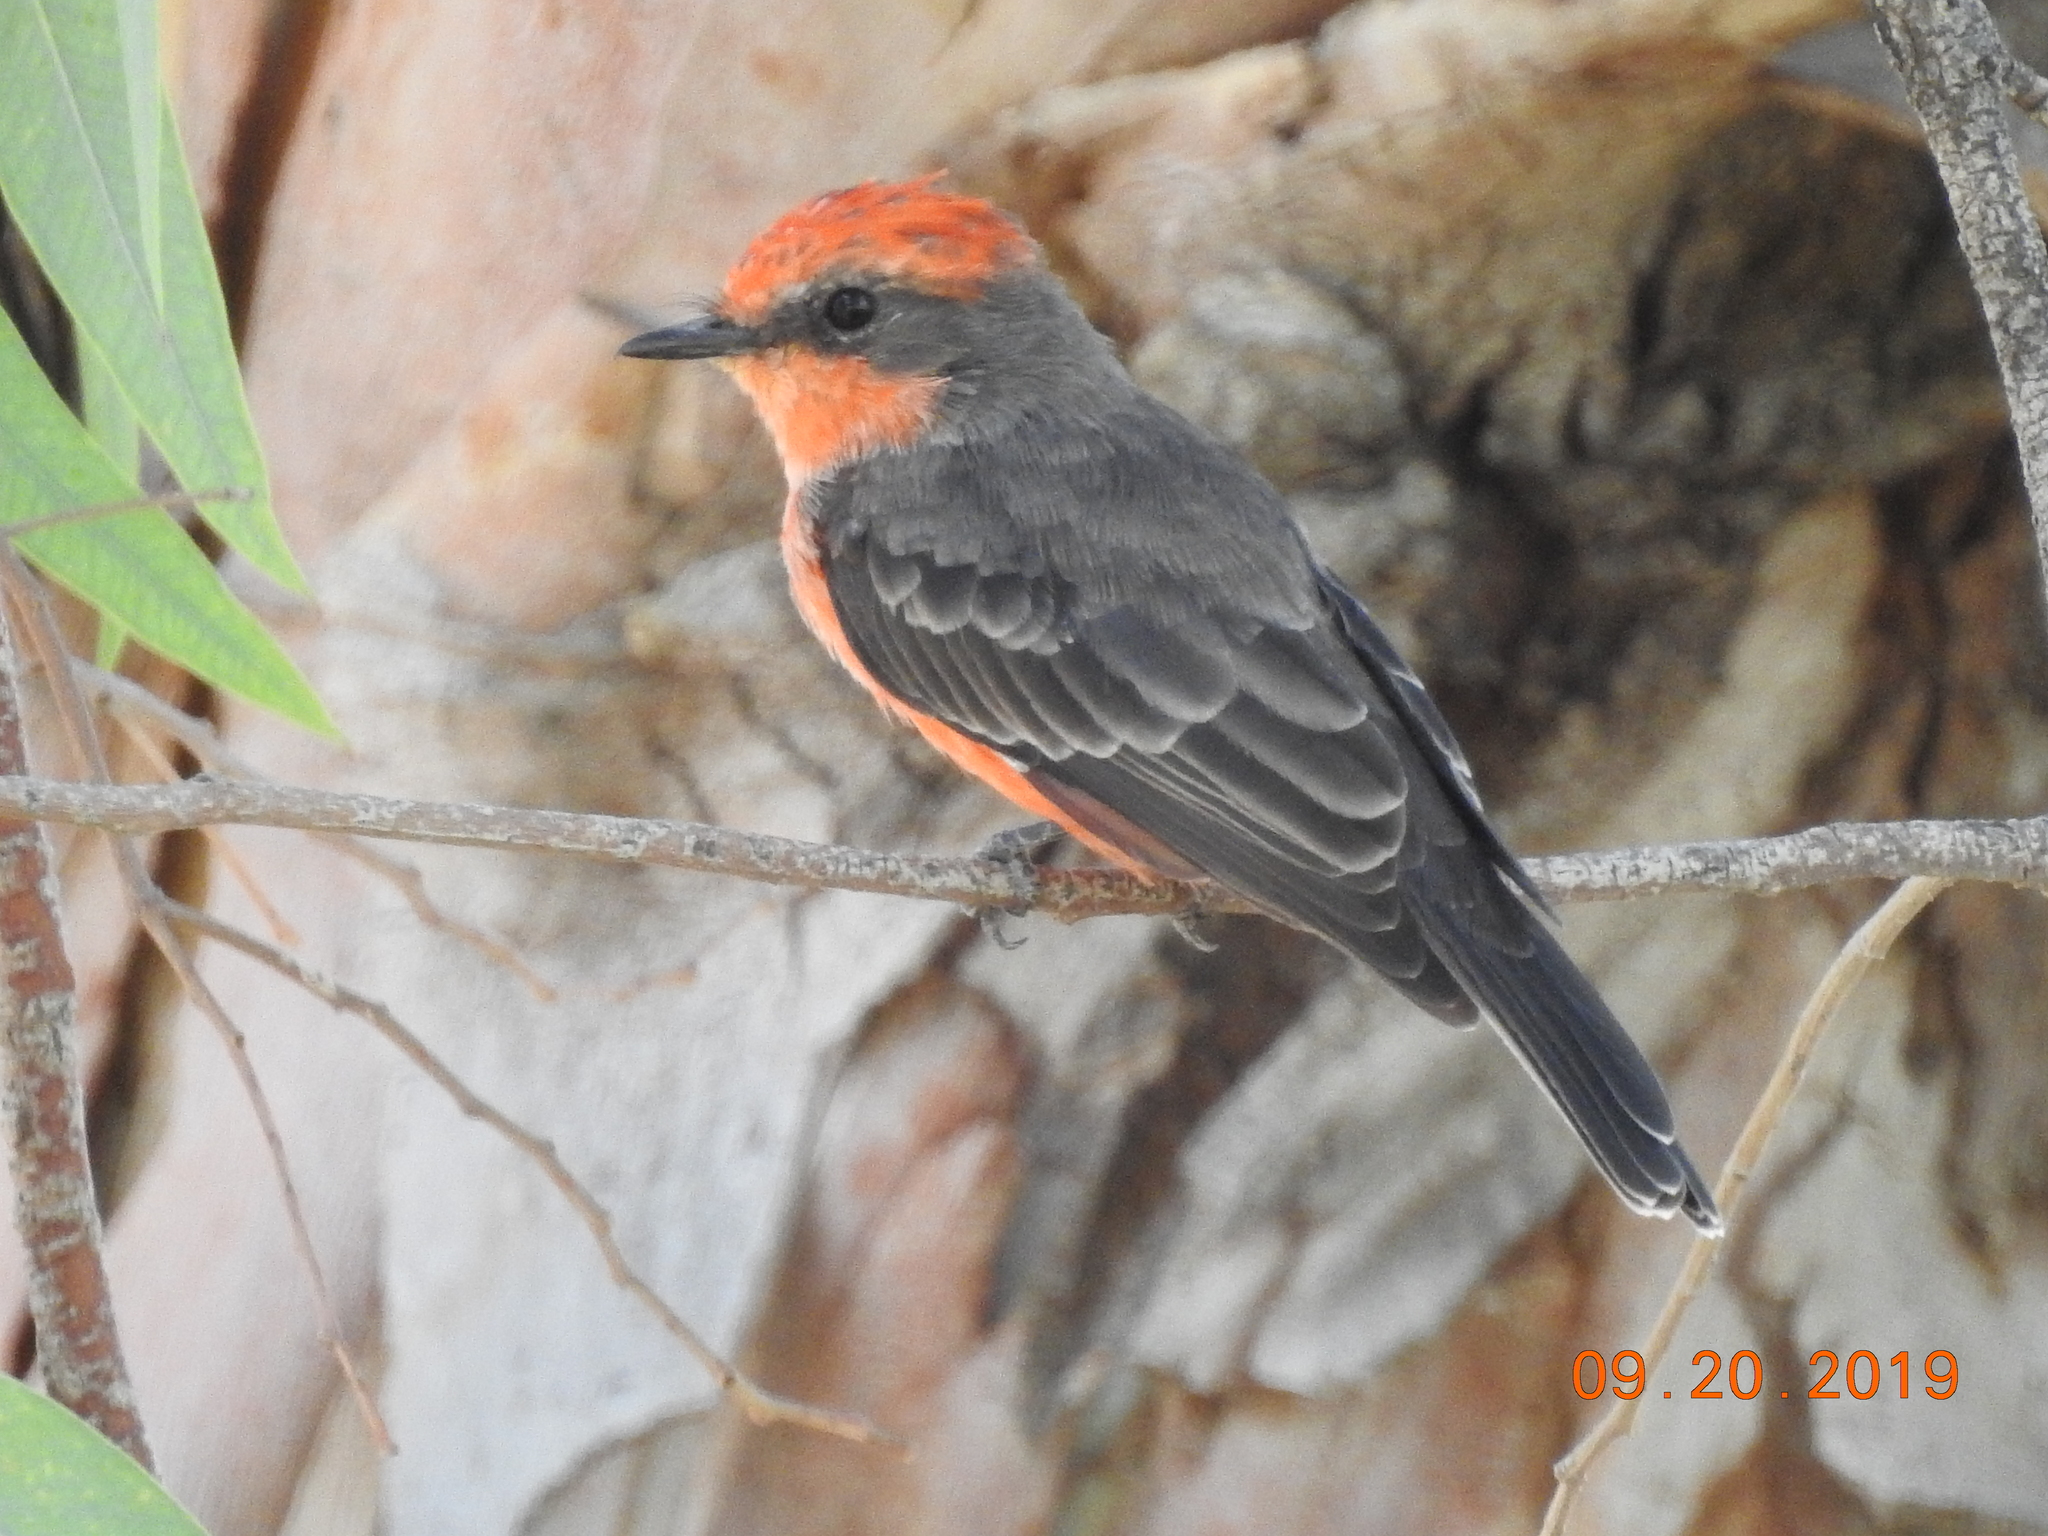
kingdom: Animalia
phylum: Chordata
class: Aves
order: Passeriformes
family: Tyrannidae
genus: Pyrocephalus
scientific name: Pyrocephalus rubinus
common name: Vermilion flycatcher
